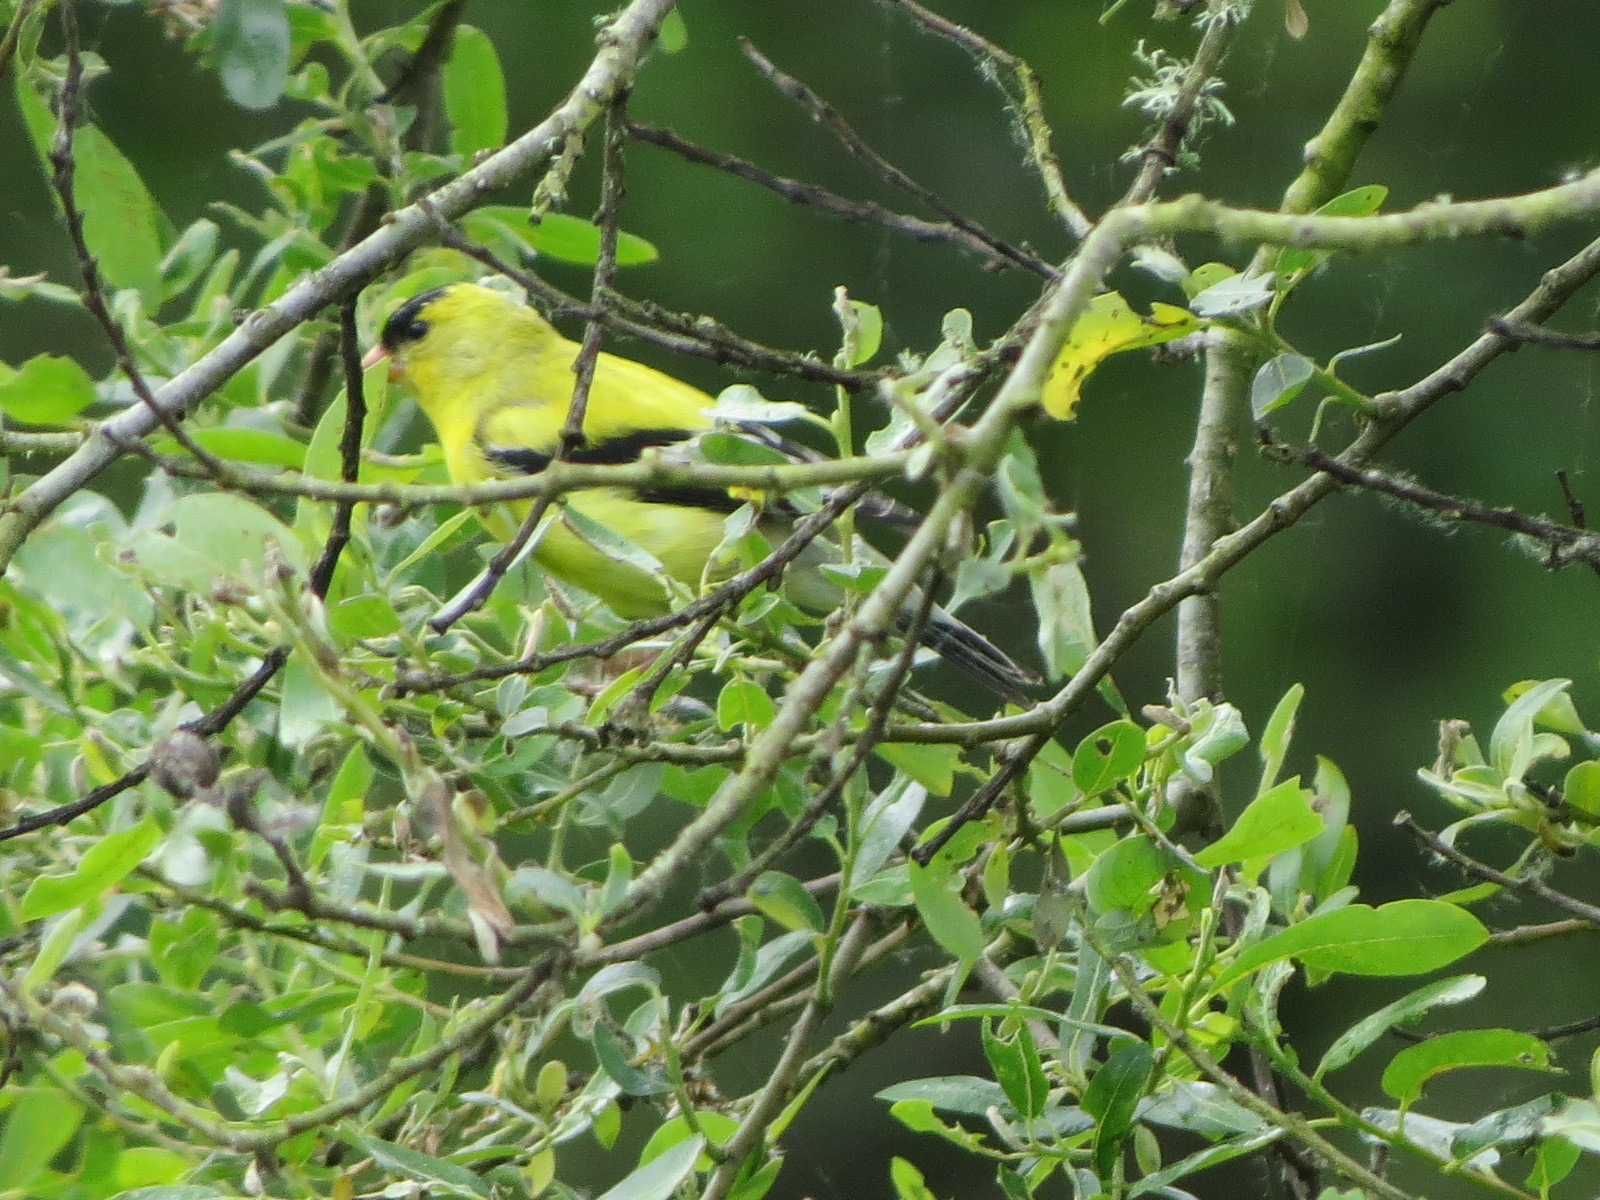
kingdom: Animalia
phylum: Chordata
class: Aves
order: Passeriformes
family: Fringillidae
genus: Spinus
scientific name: Spinus tristis
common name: American goldfinch
